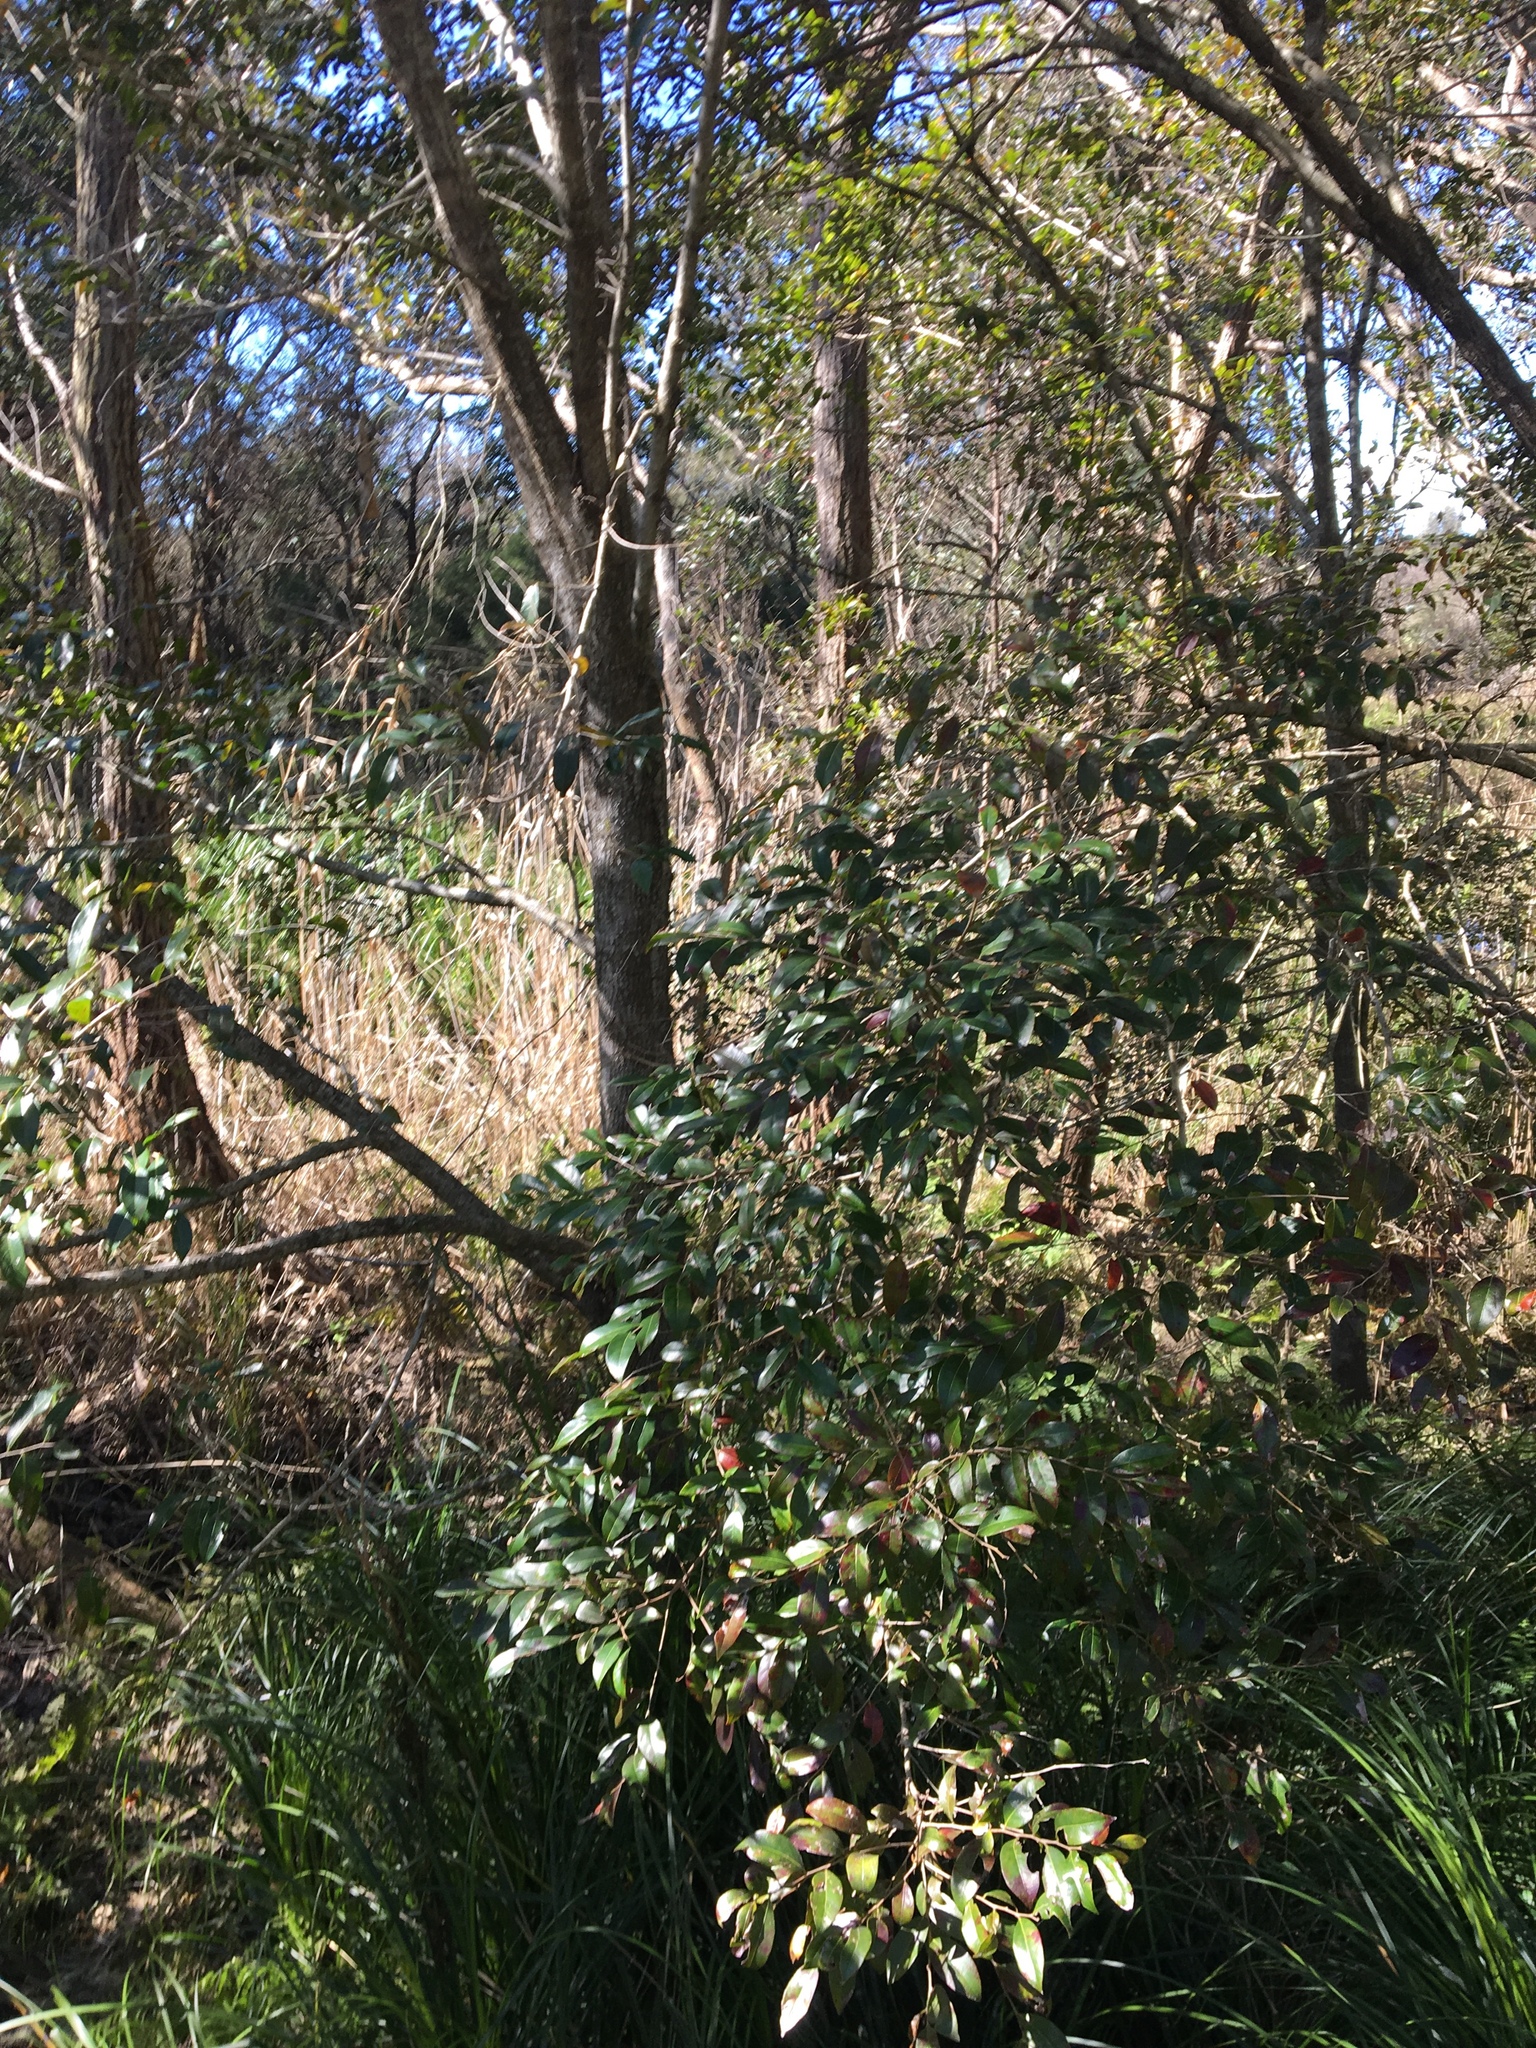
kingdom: Plantae
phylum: Tracheophyta
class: Magnoliopsida
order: Malpighiales
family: Phyllanthaceae
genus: Glochidion
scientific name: Glochidion ferdinandi
